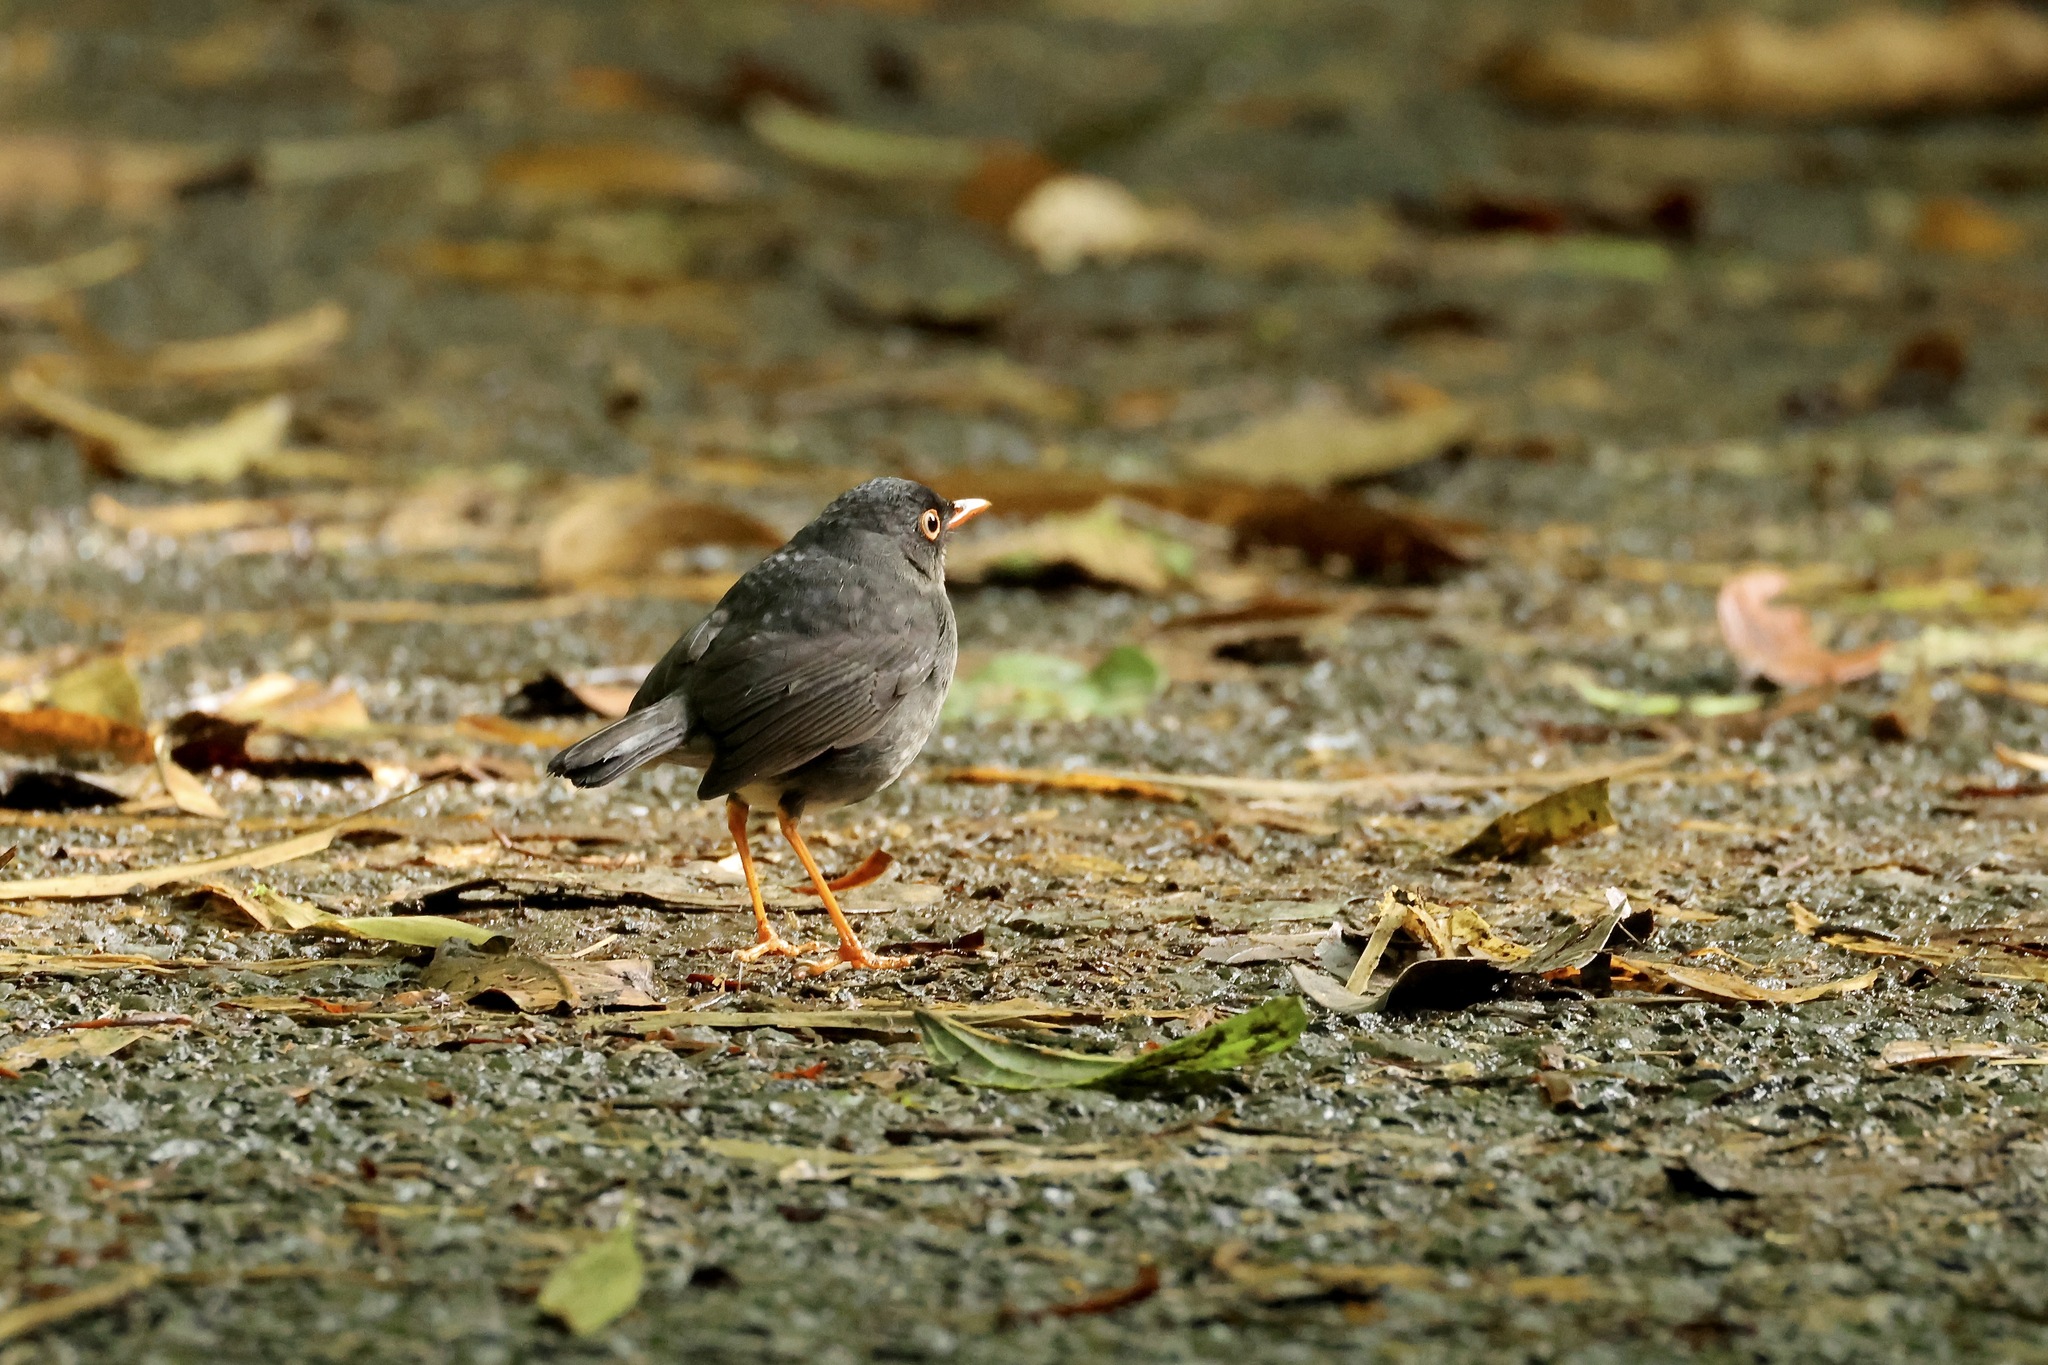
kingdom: Animalia
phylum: Chordata
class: Aves
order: Passeriformes
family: Turdidae
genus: Catharus
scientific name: Catharus fuscater
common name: Slaty-backed nightingale-thrush
